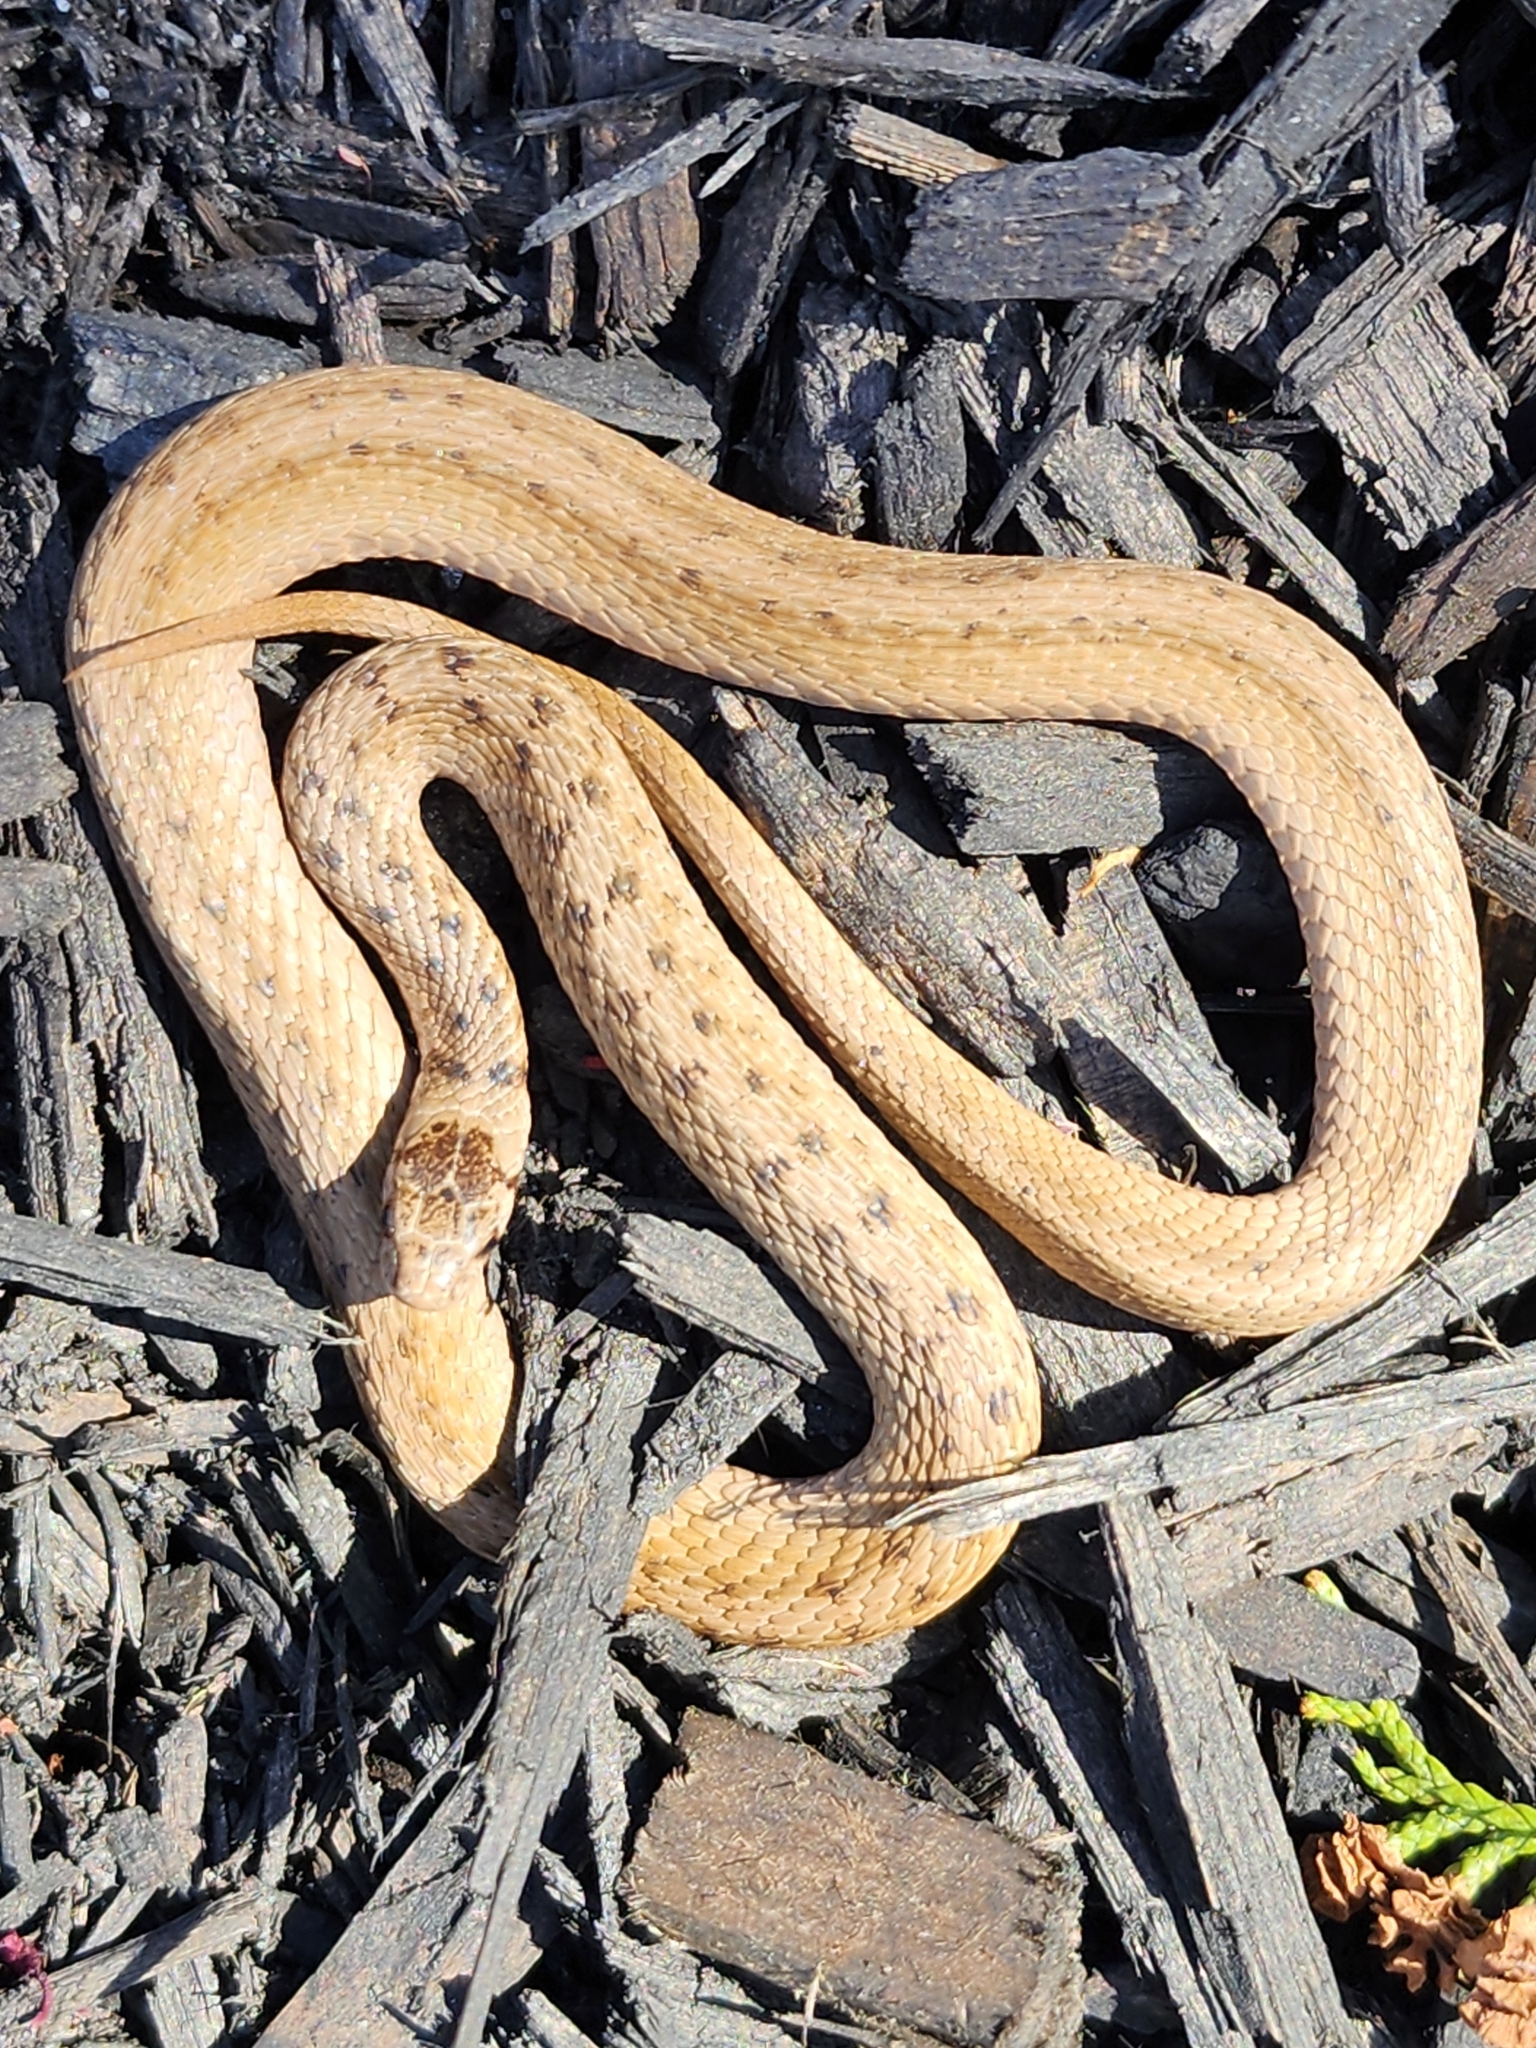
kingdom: Animalia
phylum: Chordata
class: Squamata
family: Colubridae
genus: Storeria
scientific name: Storeria dekayi
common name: (dekay’s) brown snake
